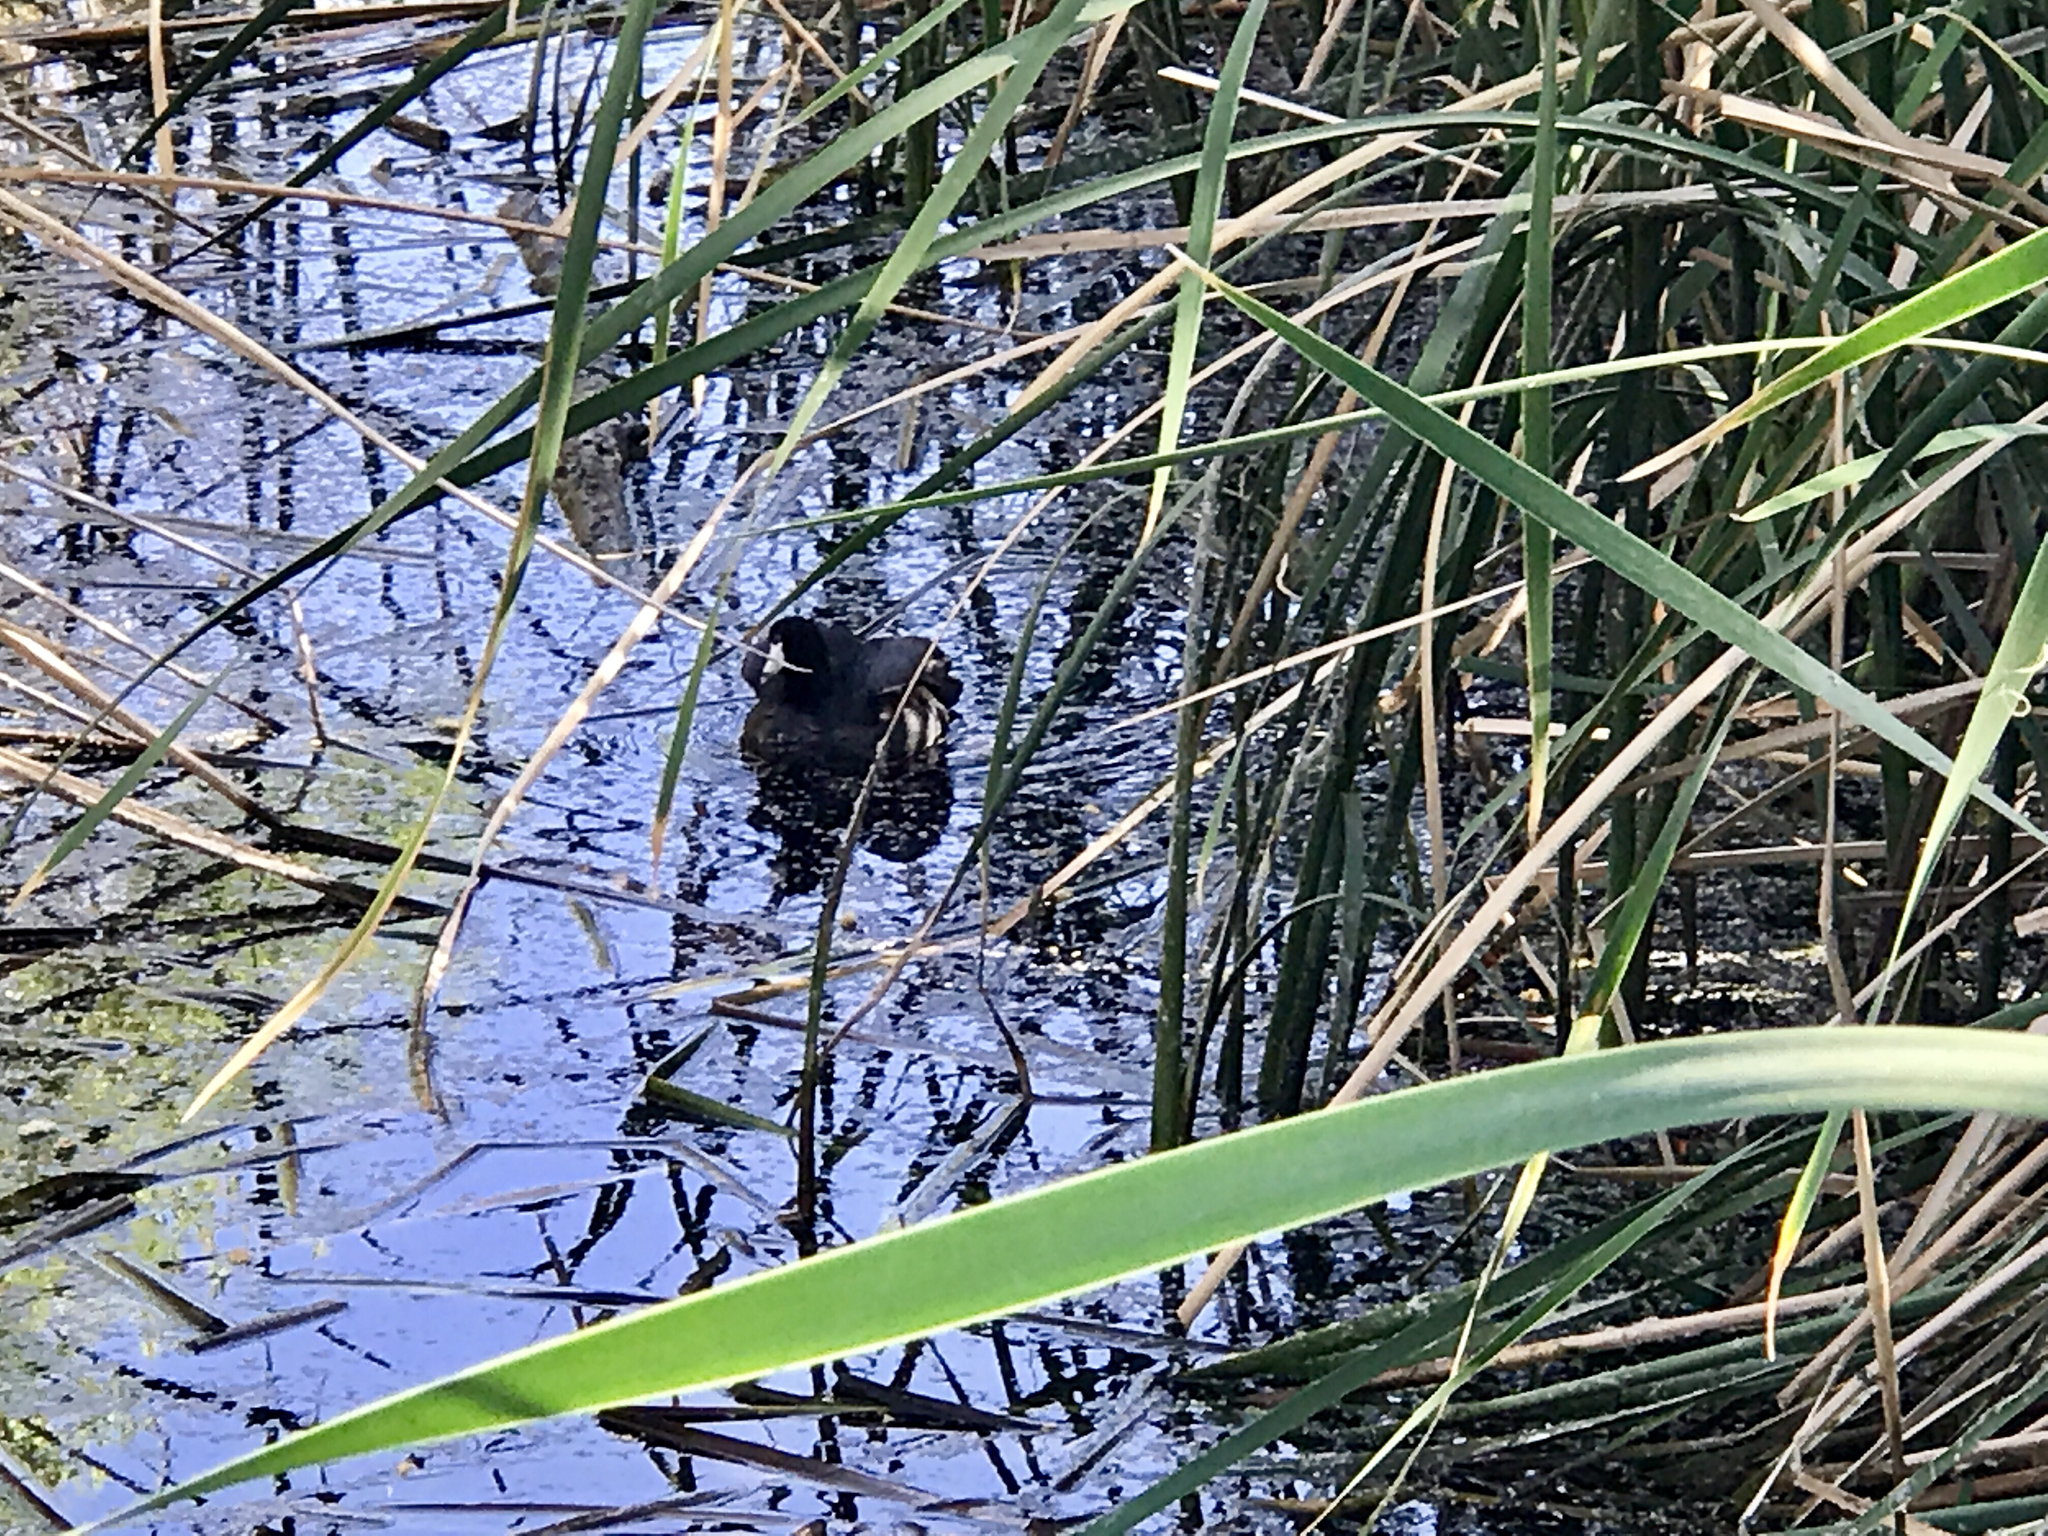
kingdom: Animalia
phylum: Chordata
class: Aves
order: Gruiformes
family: Rallidae
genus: Fulica
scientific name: Fulica americana
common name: American coot
